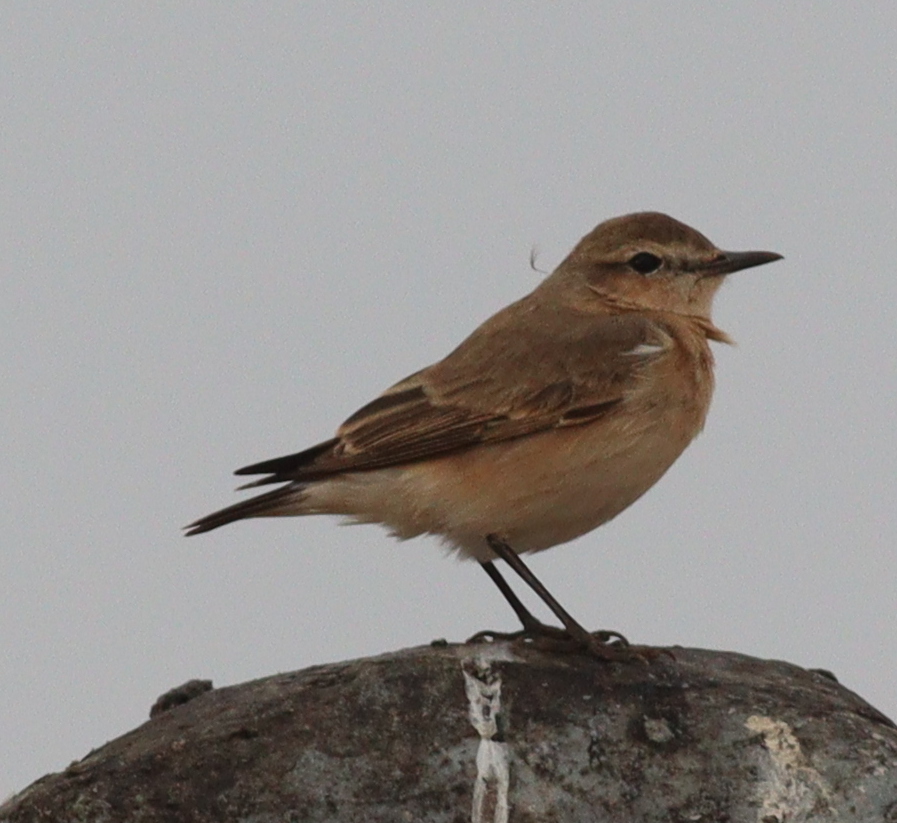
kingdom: Animalia
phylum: Chordata
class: Aves
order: Passeriformes
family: Muscicapidae
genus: Oenanthe
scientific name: Oenanthe isabellina
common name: Isabelline wheatear
